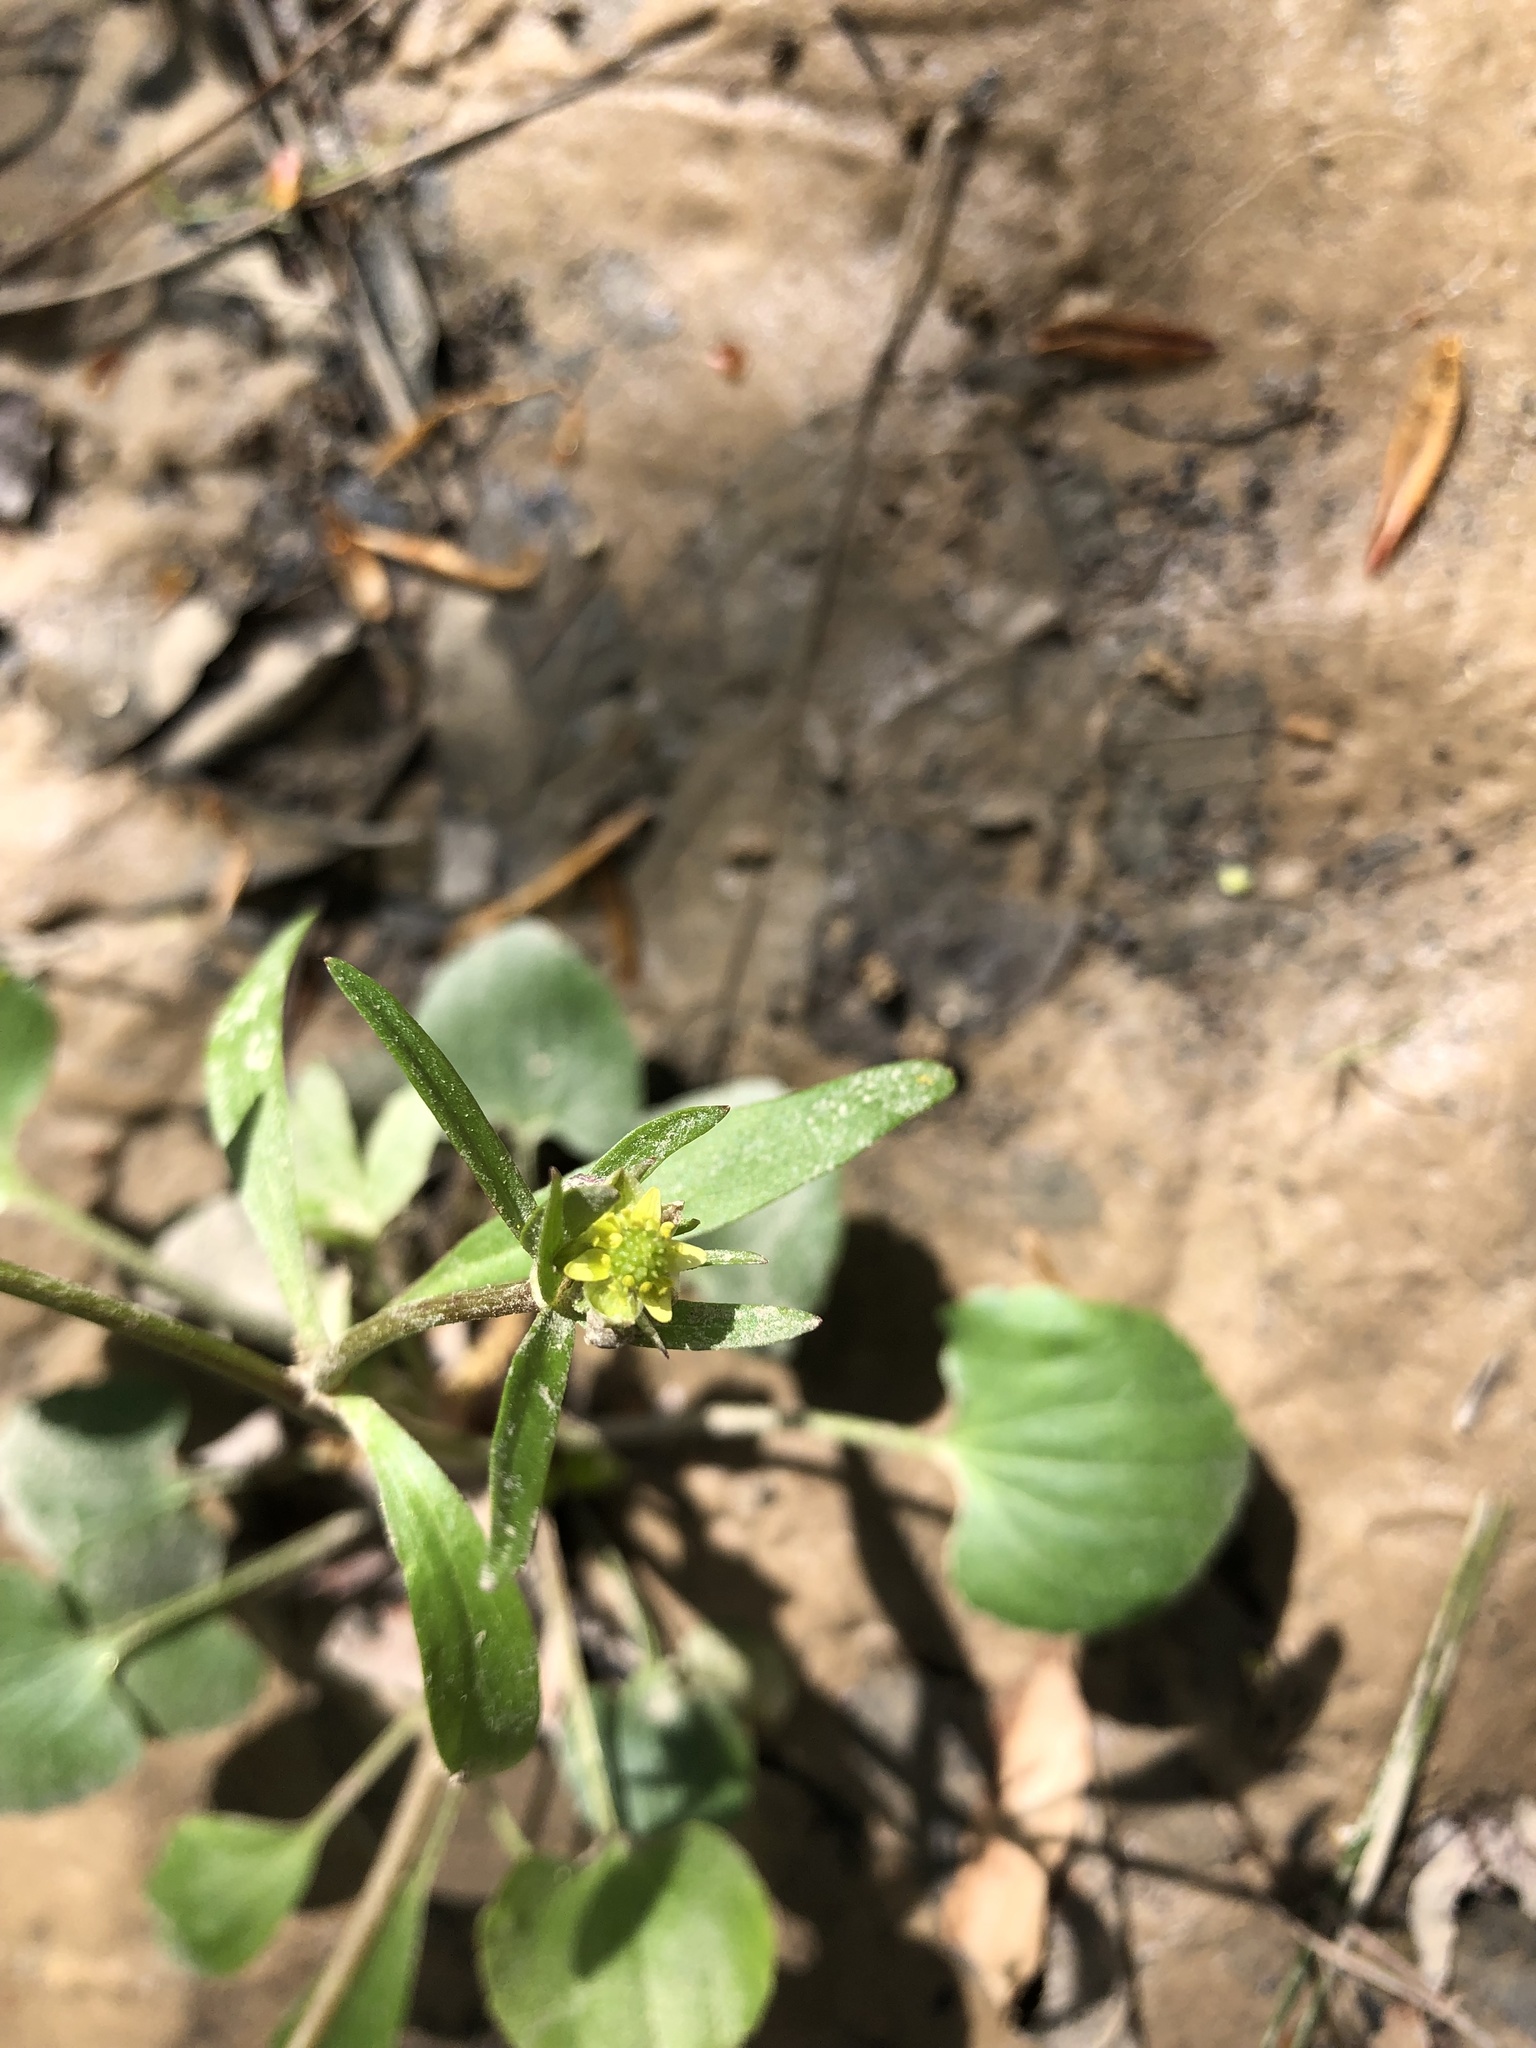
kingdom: Plantae
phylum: Tracheophyta
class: Magnoliopsida
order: Ranunculales
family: Ranunculaceae
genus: Ranunculus
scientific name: Ranunculus abortivus
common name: Early wood buttercup
